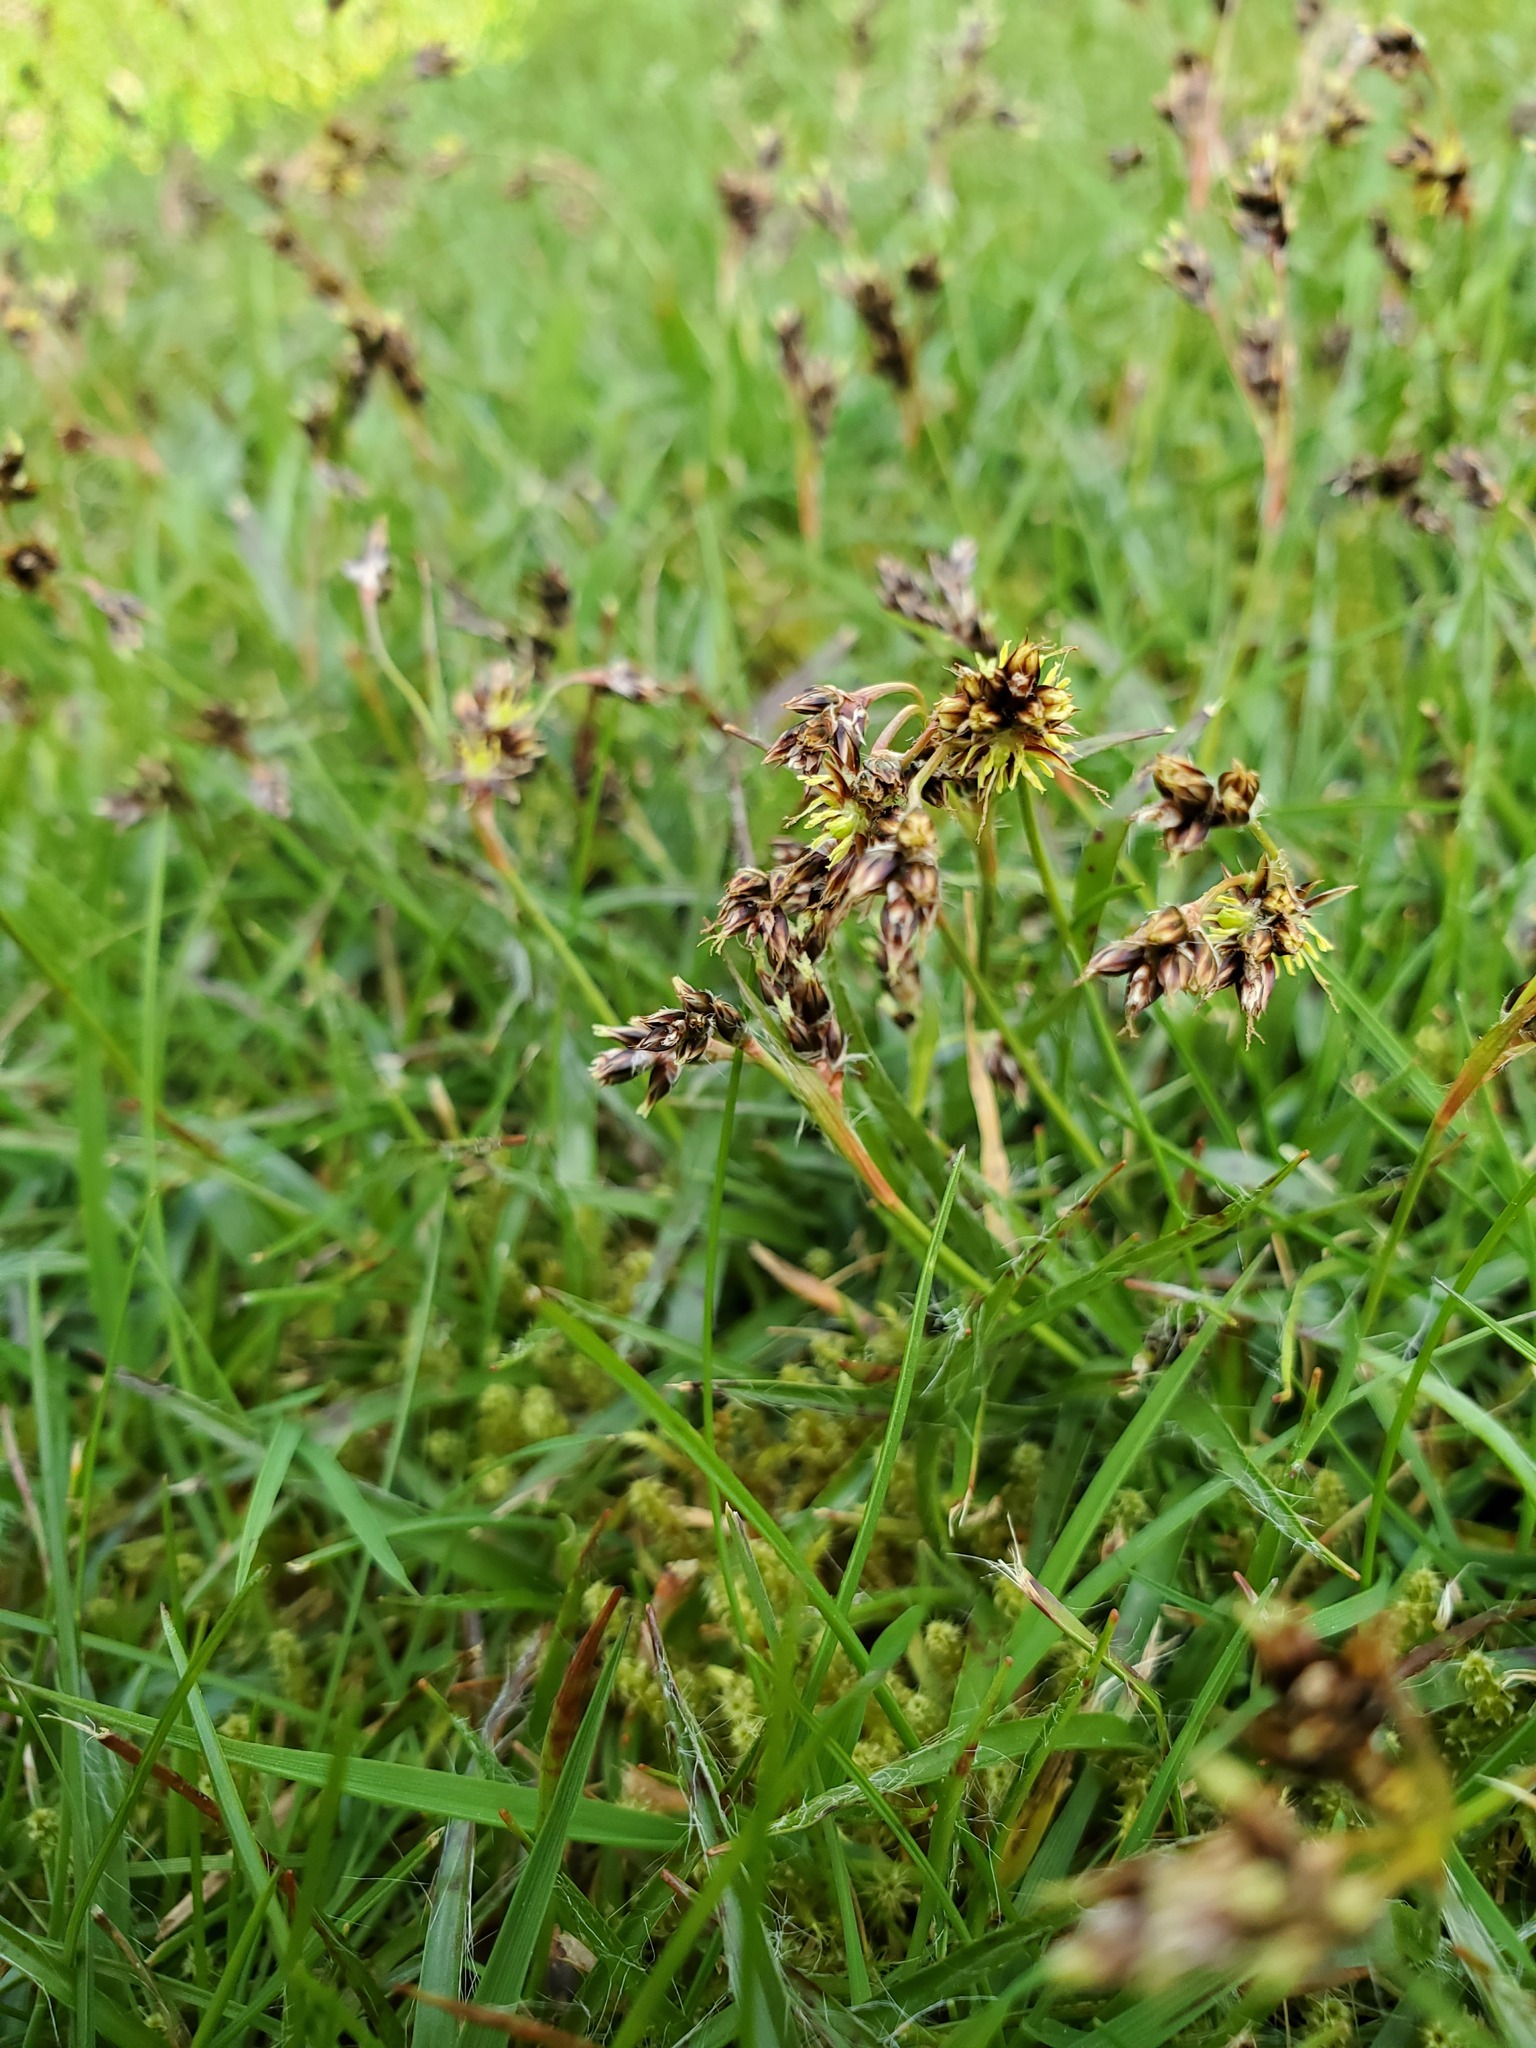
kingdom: Plantae
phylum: Tracheophyta
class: Liliopsida
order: Poales
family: Juncaceae
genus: Luzula
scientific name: Luzula campestris
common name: Field wood-rush
